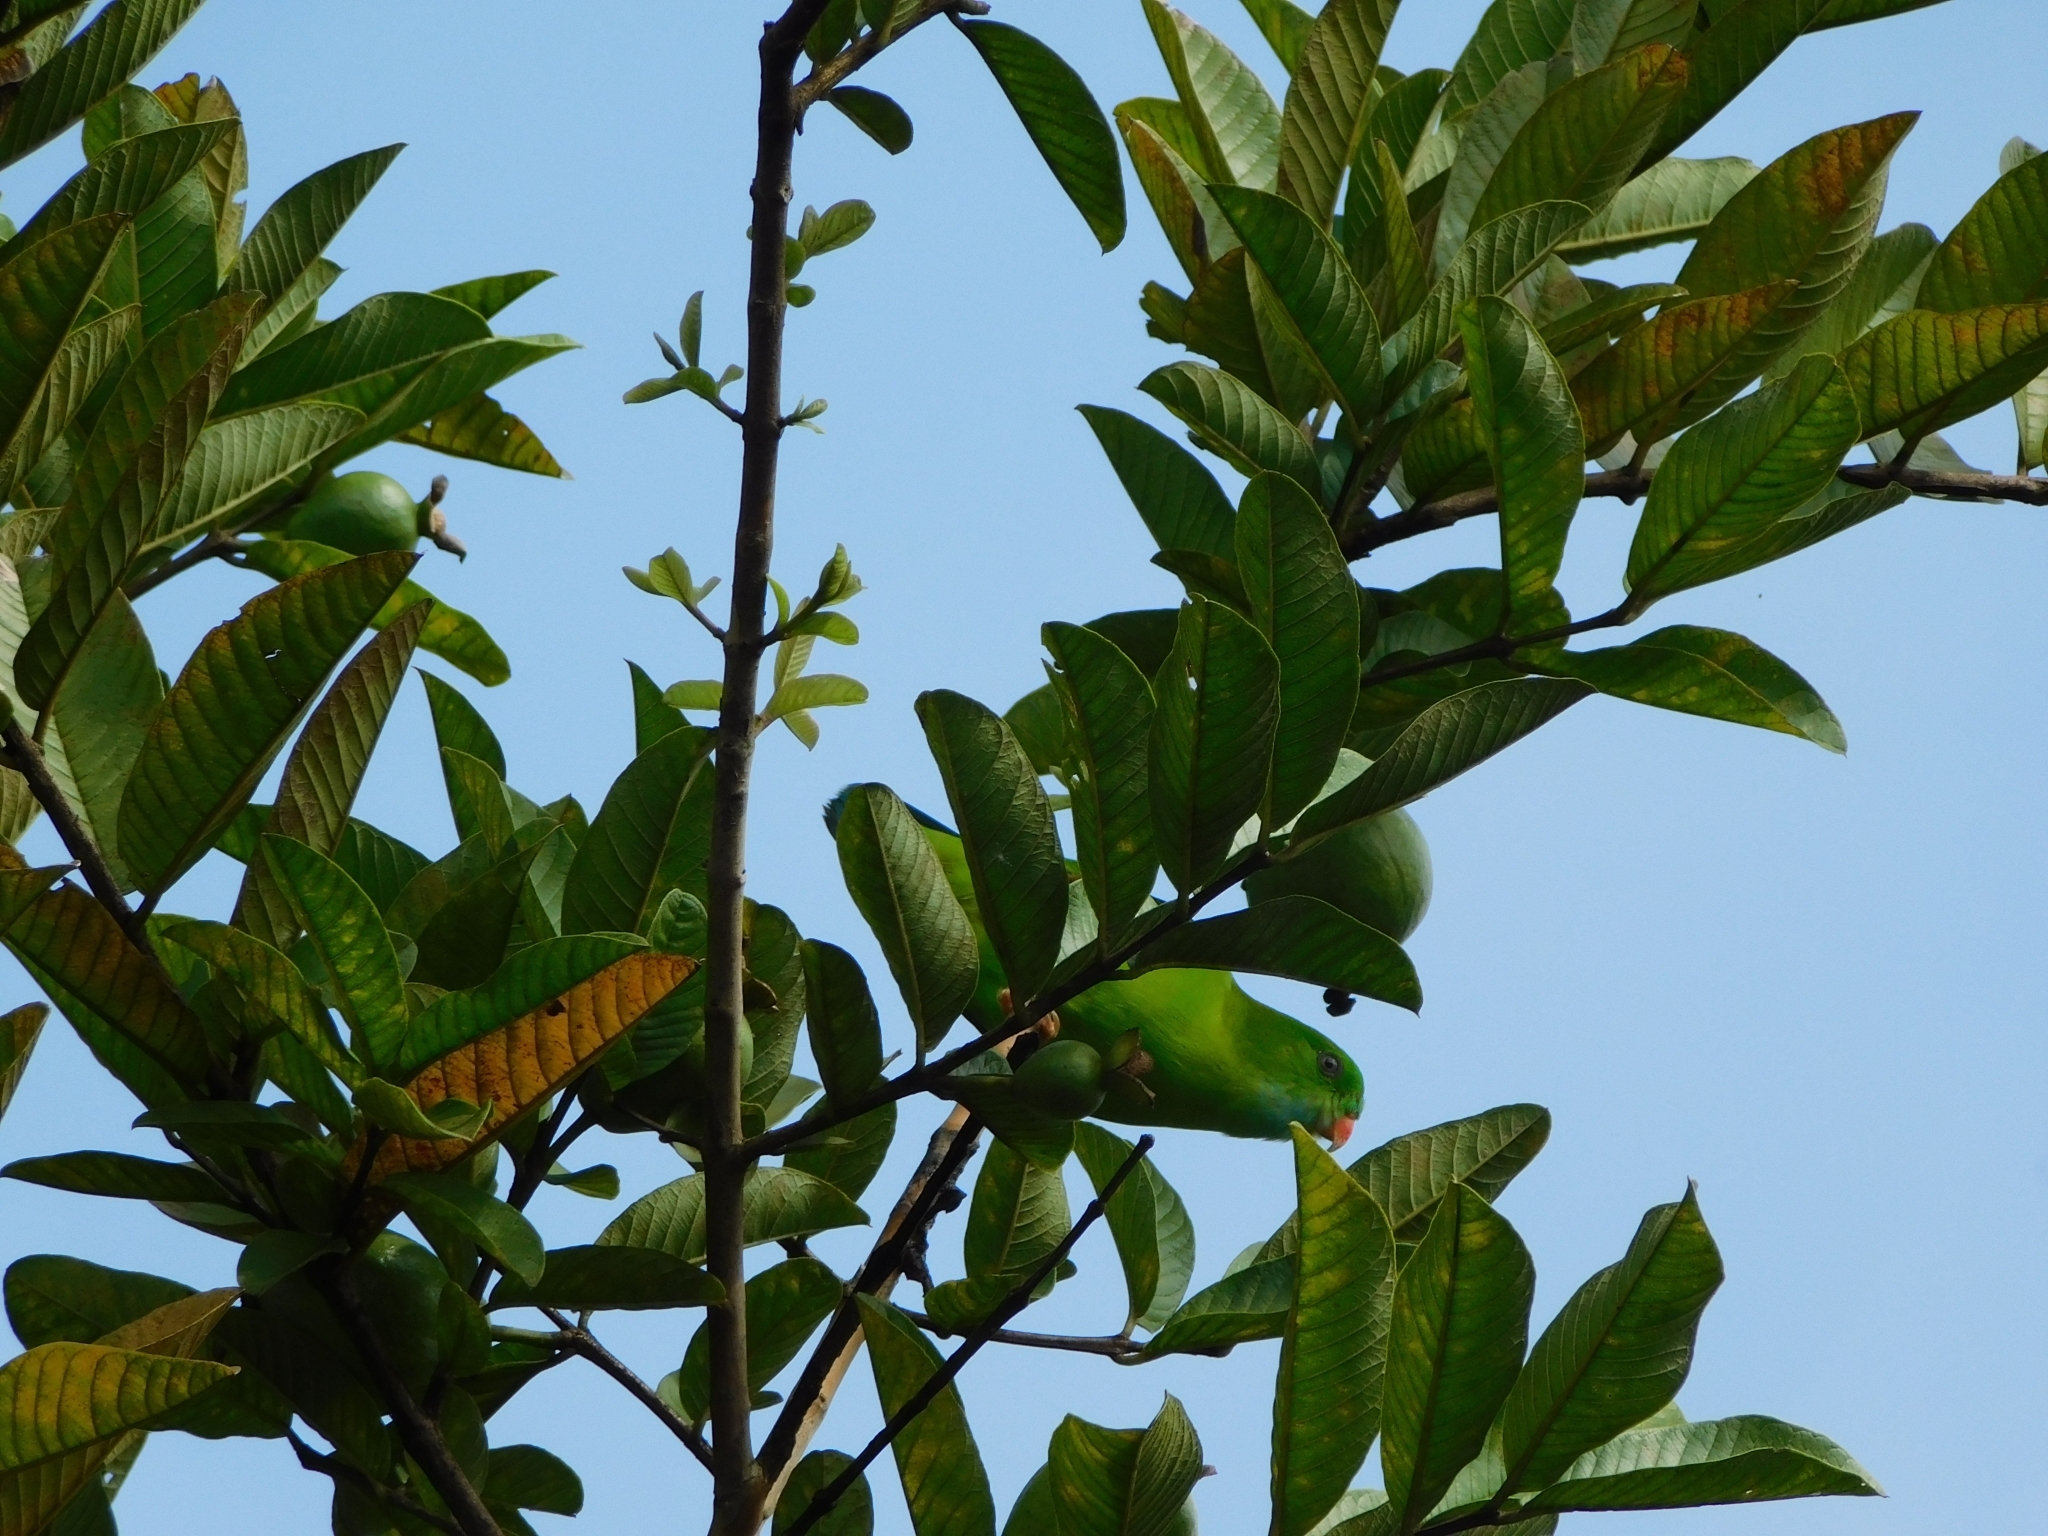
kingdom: Animalia
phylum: Chordata
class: Aves
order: Psittaciformes
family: Psittacidae
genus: Loriculus
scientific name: Loriculus vernalis
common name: Vernal hanging parrot
